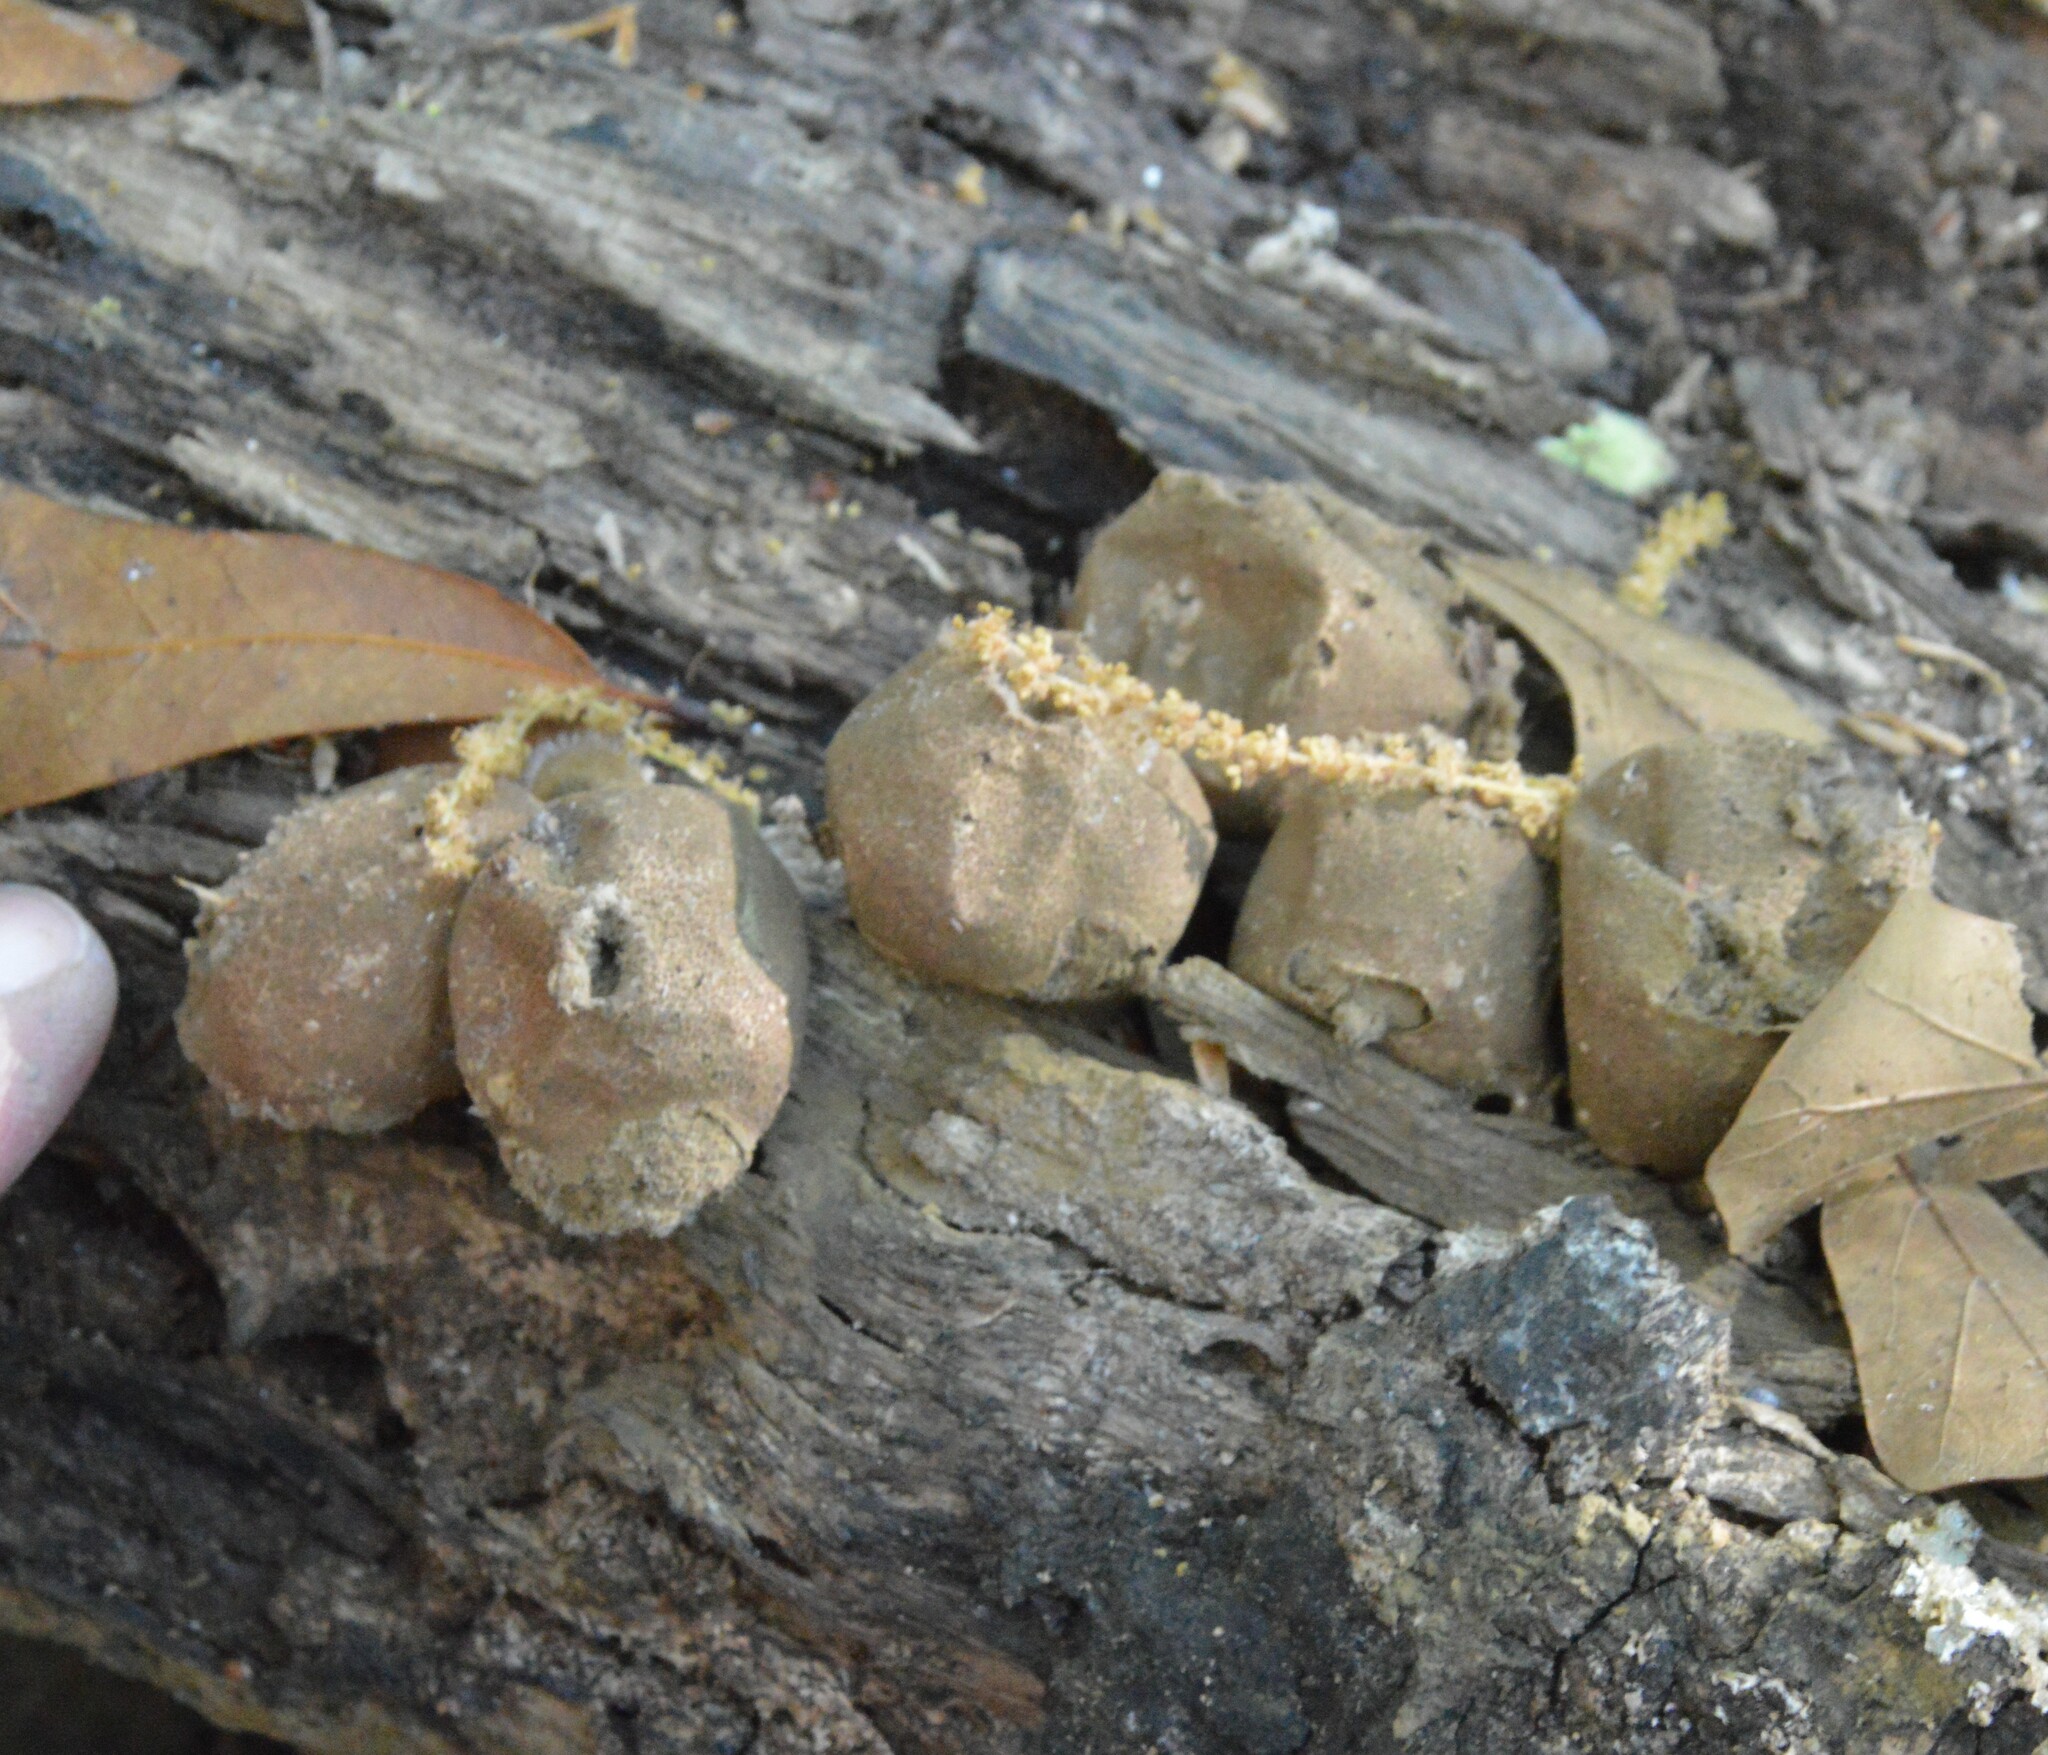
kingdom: Fungi
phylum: Basidiomycota
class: Agaricomycetes
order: Agaricales
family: Lycoperdaceae
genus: Apioperdon
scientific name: Apioperdon pyriforme
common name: Pear-shaped puffball
